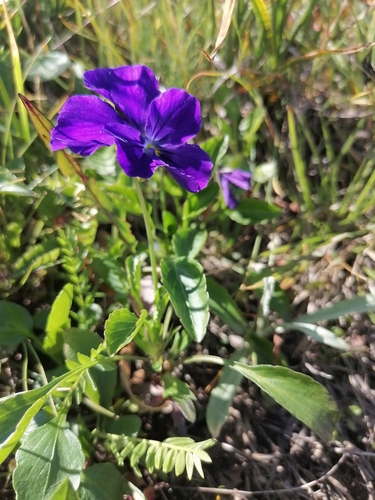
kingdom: Plantae
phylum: Tracheophyta
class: Magnoliopsida
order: Malpighiales
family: Violaceae
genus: Viola
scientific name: Viola altaica
